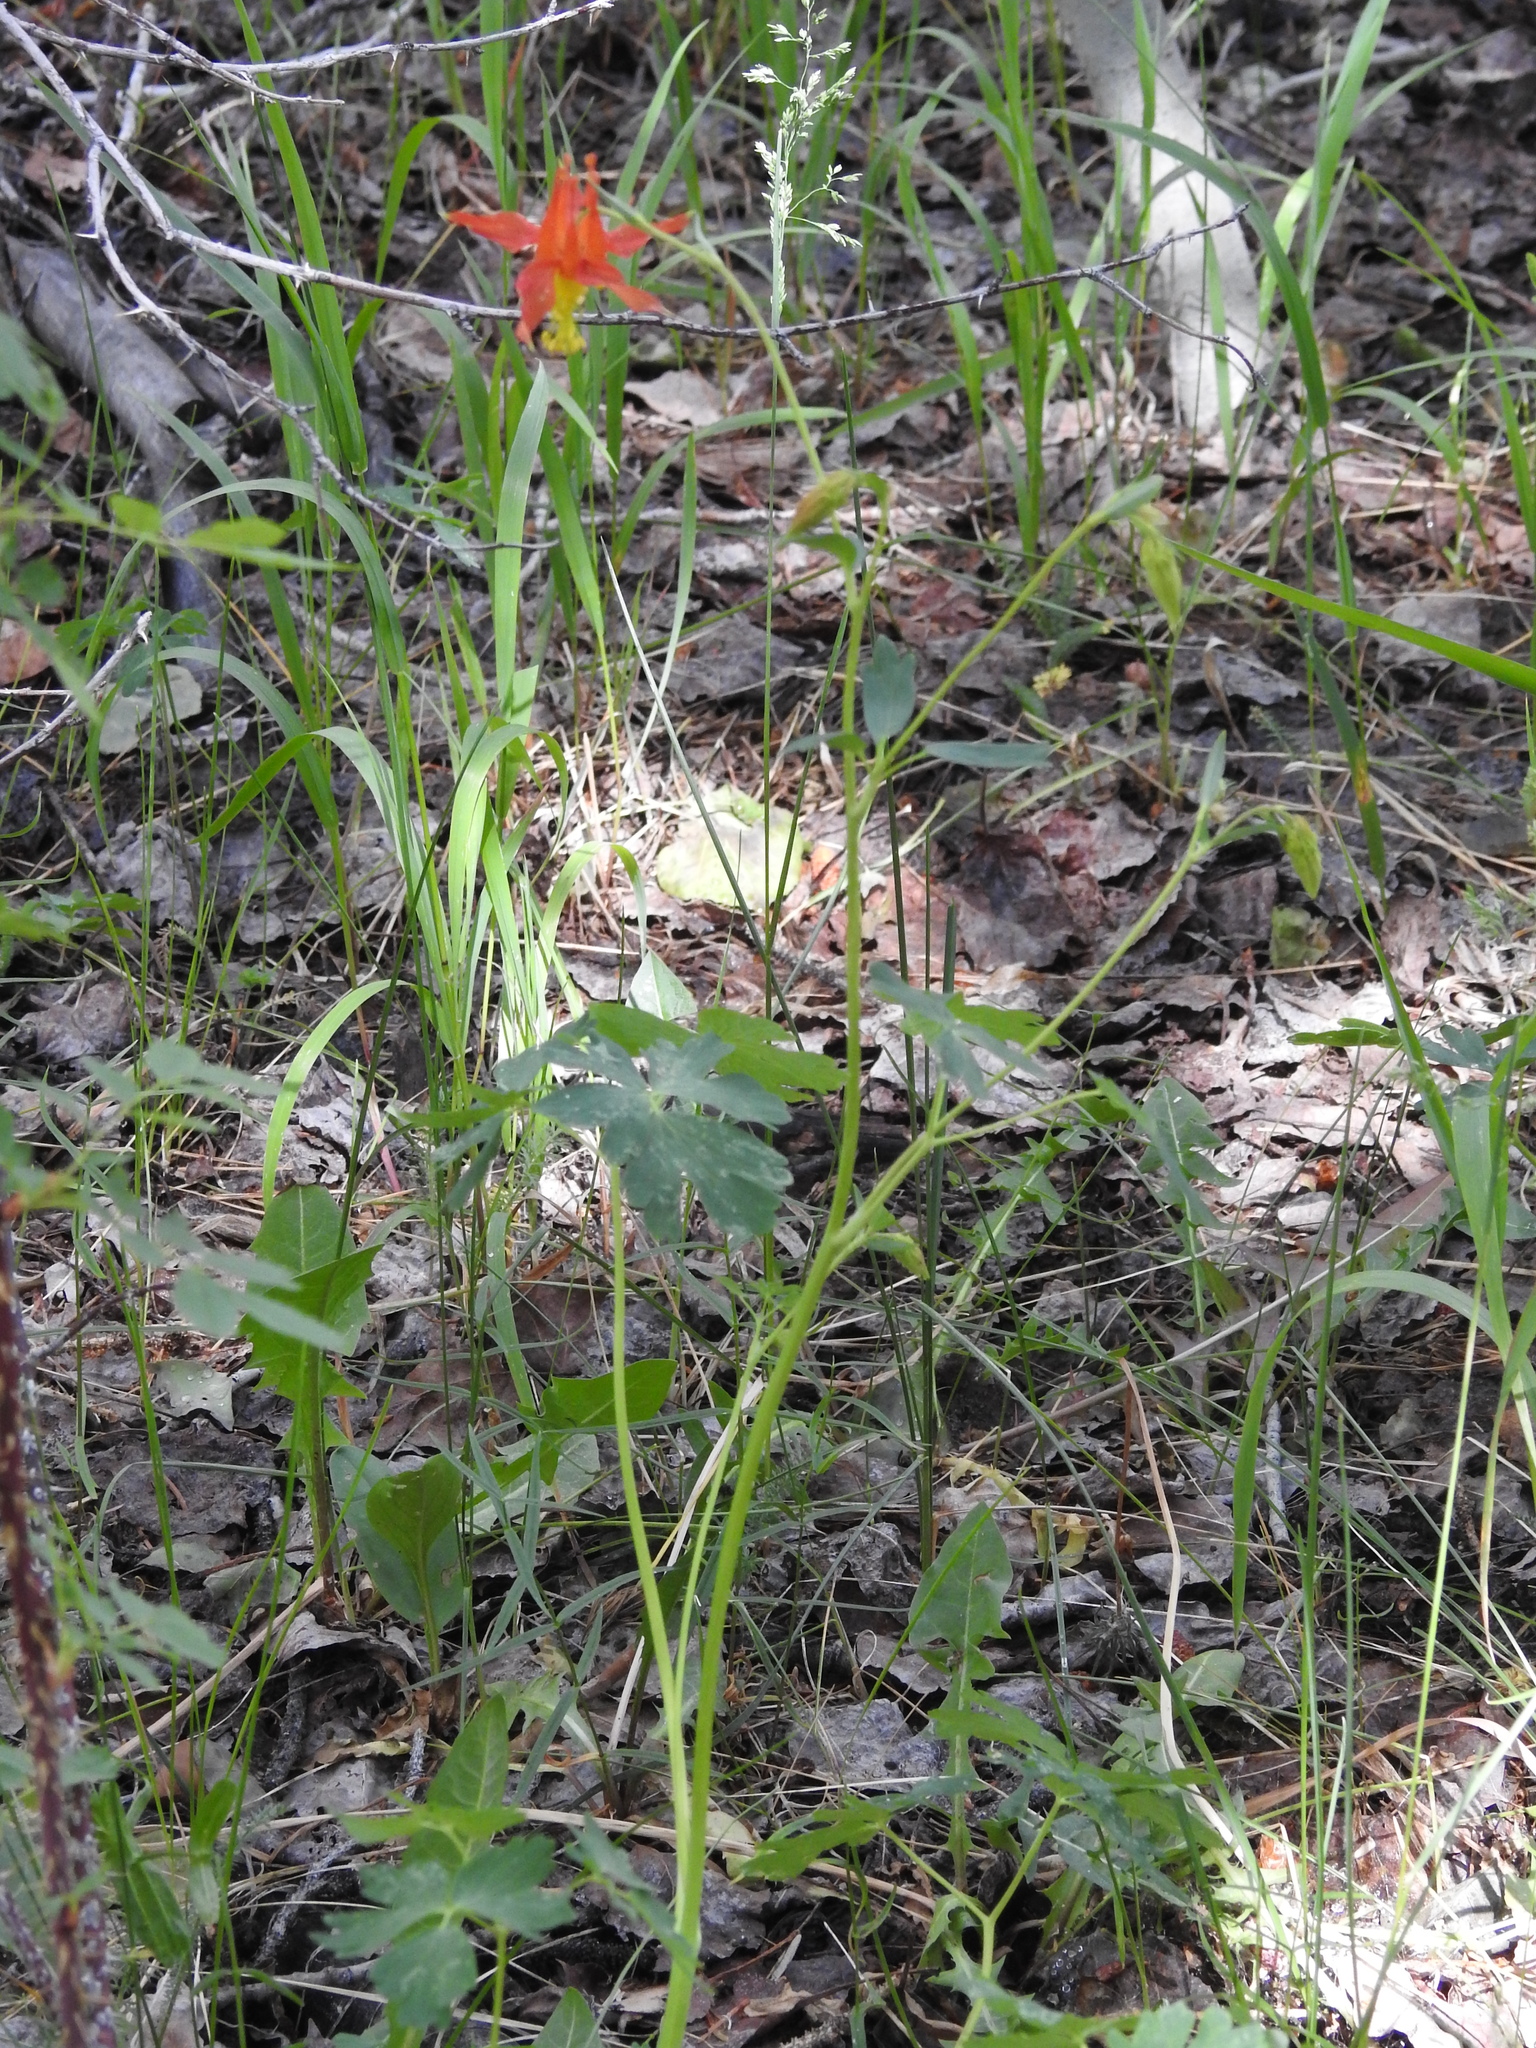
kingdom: Plantae
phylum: Tracheophyta
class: Magnoliopsida
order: Ranunculales
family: Ranunculaceae
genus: Aquilegia
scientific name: Aquilegia formosa
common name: Sitka columbine
